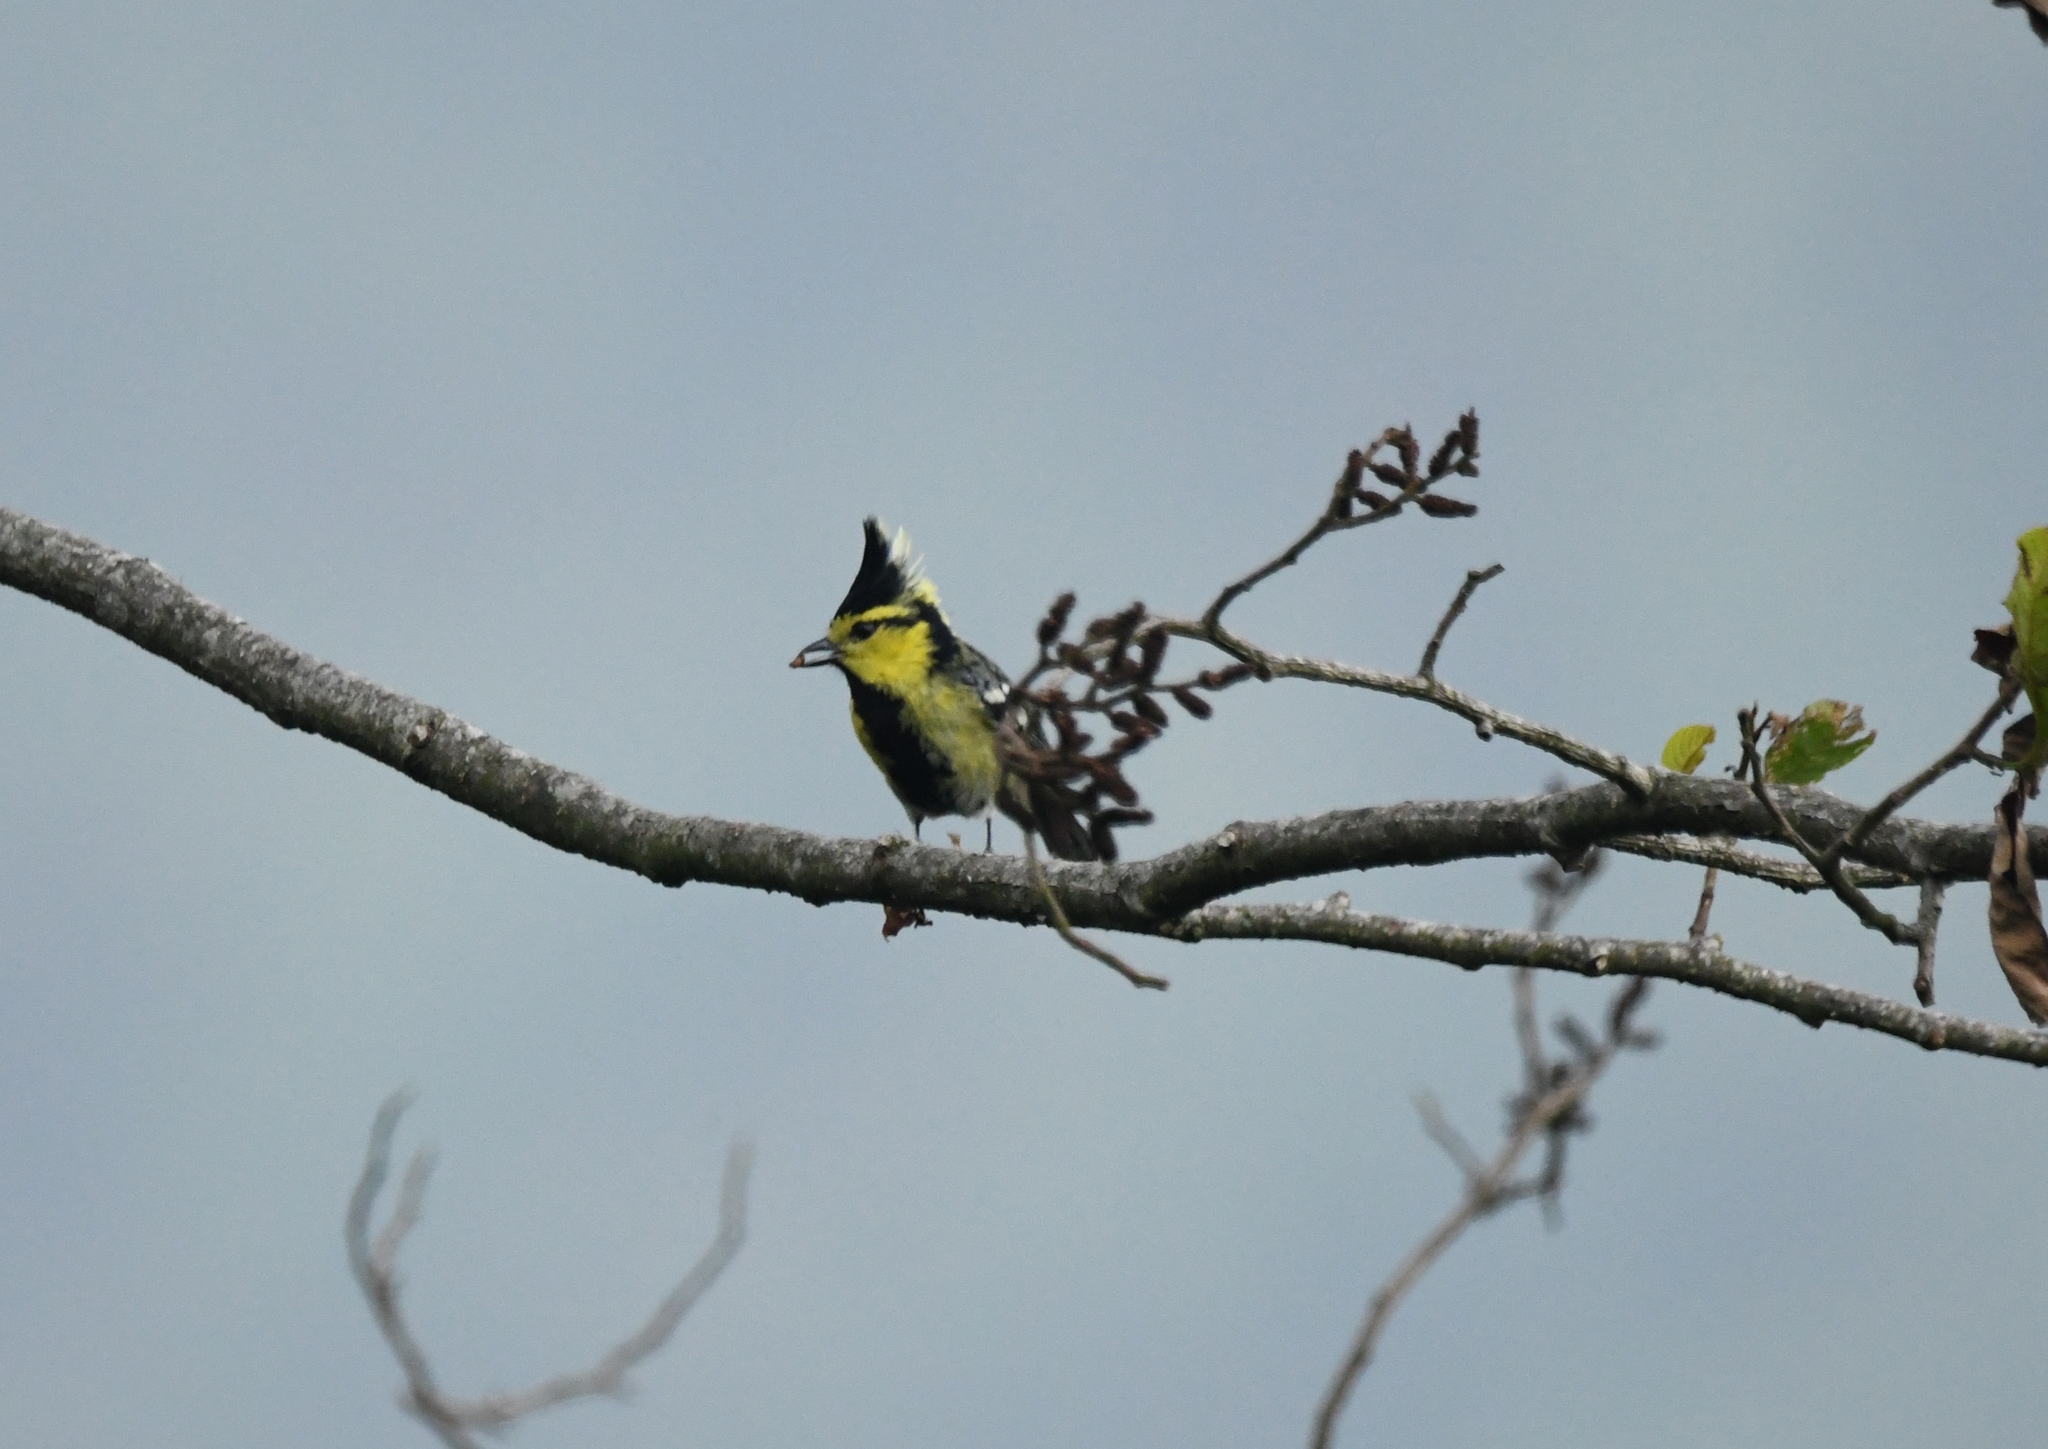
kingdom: Animalia
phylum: Chordata
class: Aves
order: Passeriformes
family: Paridae
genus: Parus
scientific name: Parus spilonotus
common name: Yellow-cheeked tit
